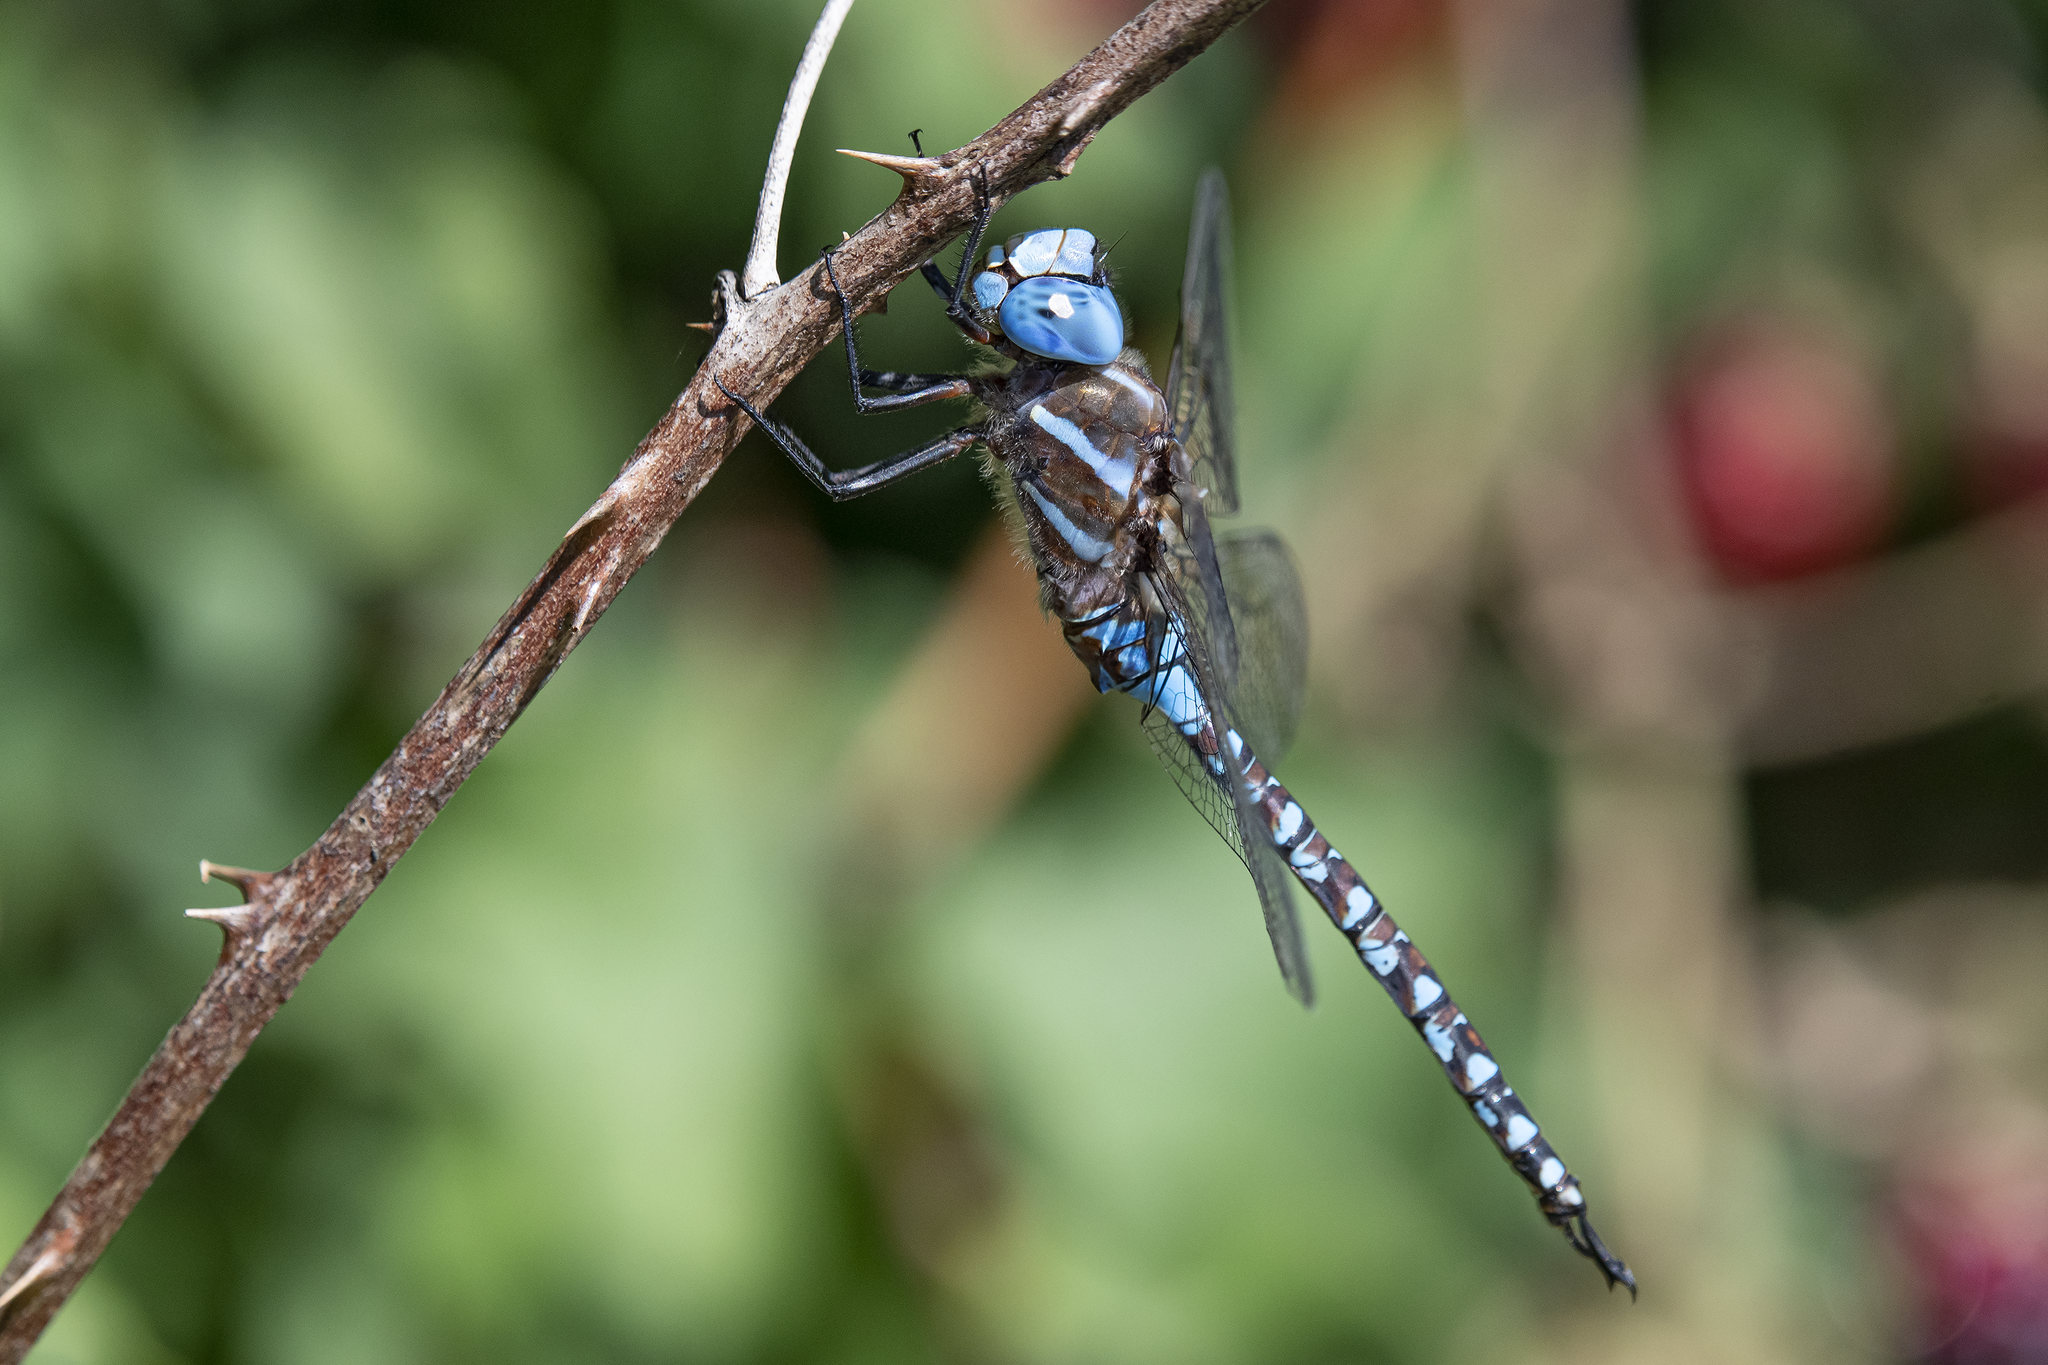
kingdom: Animalia
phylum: Arthropoda
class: Insecta
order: Odonata
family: Aeshnidae
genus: Rhionaeschna
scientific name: Rhionaeschna multicolor
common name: Blue-eyed darner
